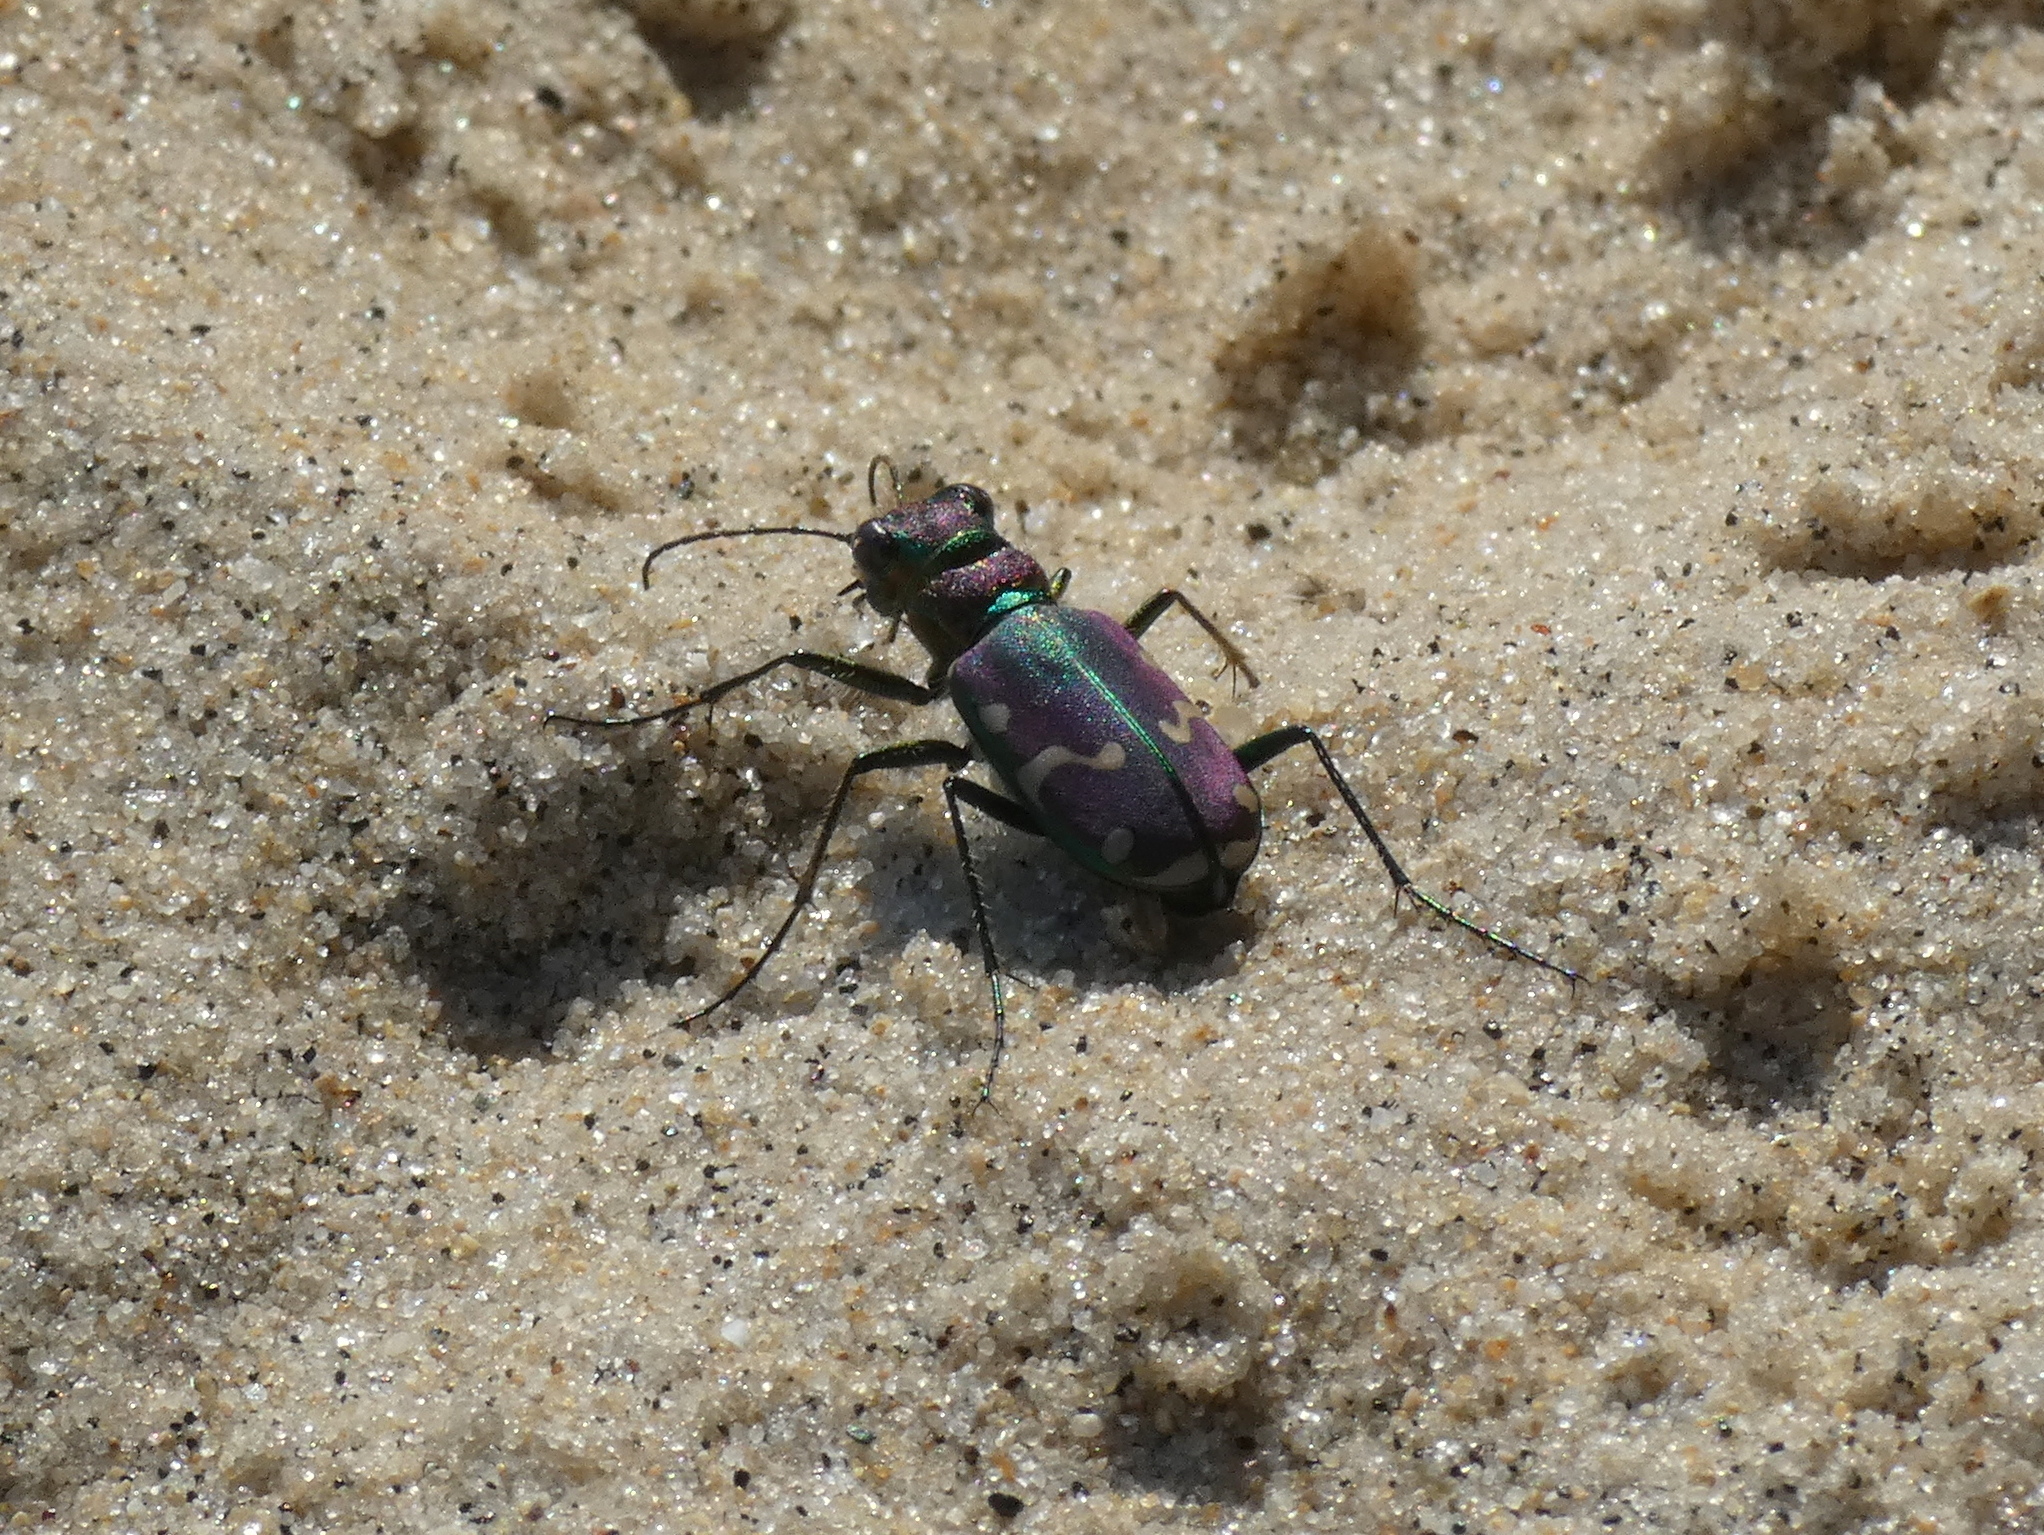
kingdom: Animalia
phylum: Arthropoda
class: Insecta
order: Coleoptera
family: Carabidae
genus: Cicindela
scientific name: Cicindela limbalis
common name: Common claybank tiger beetle
